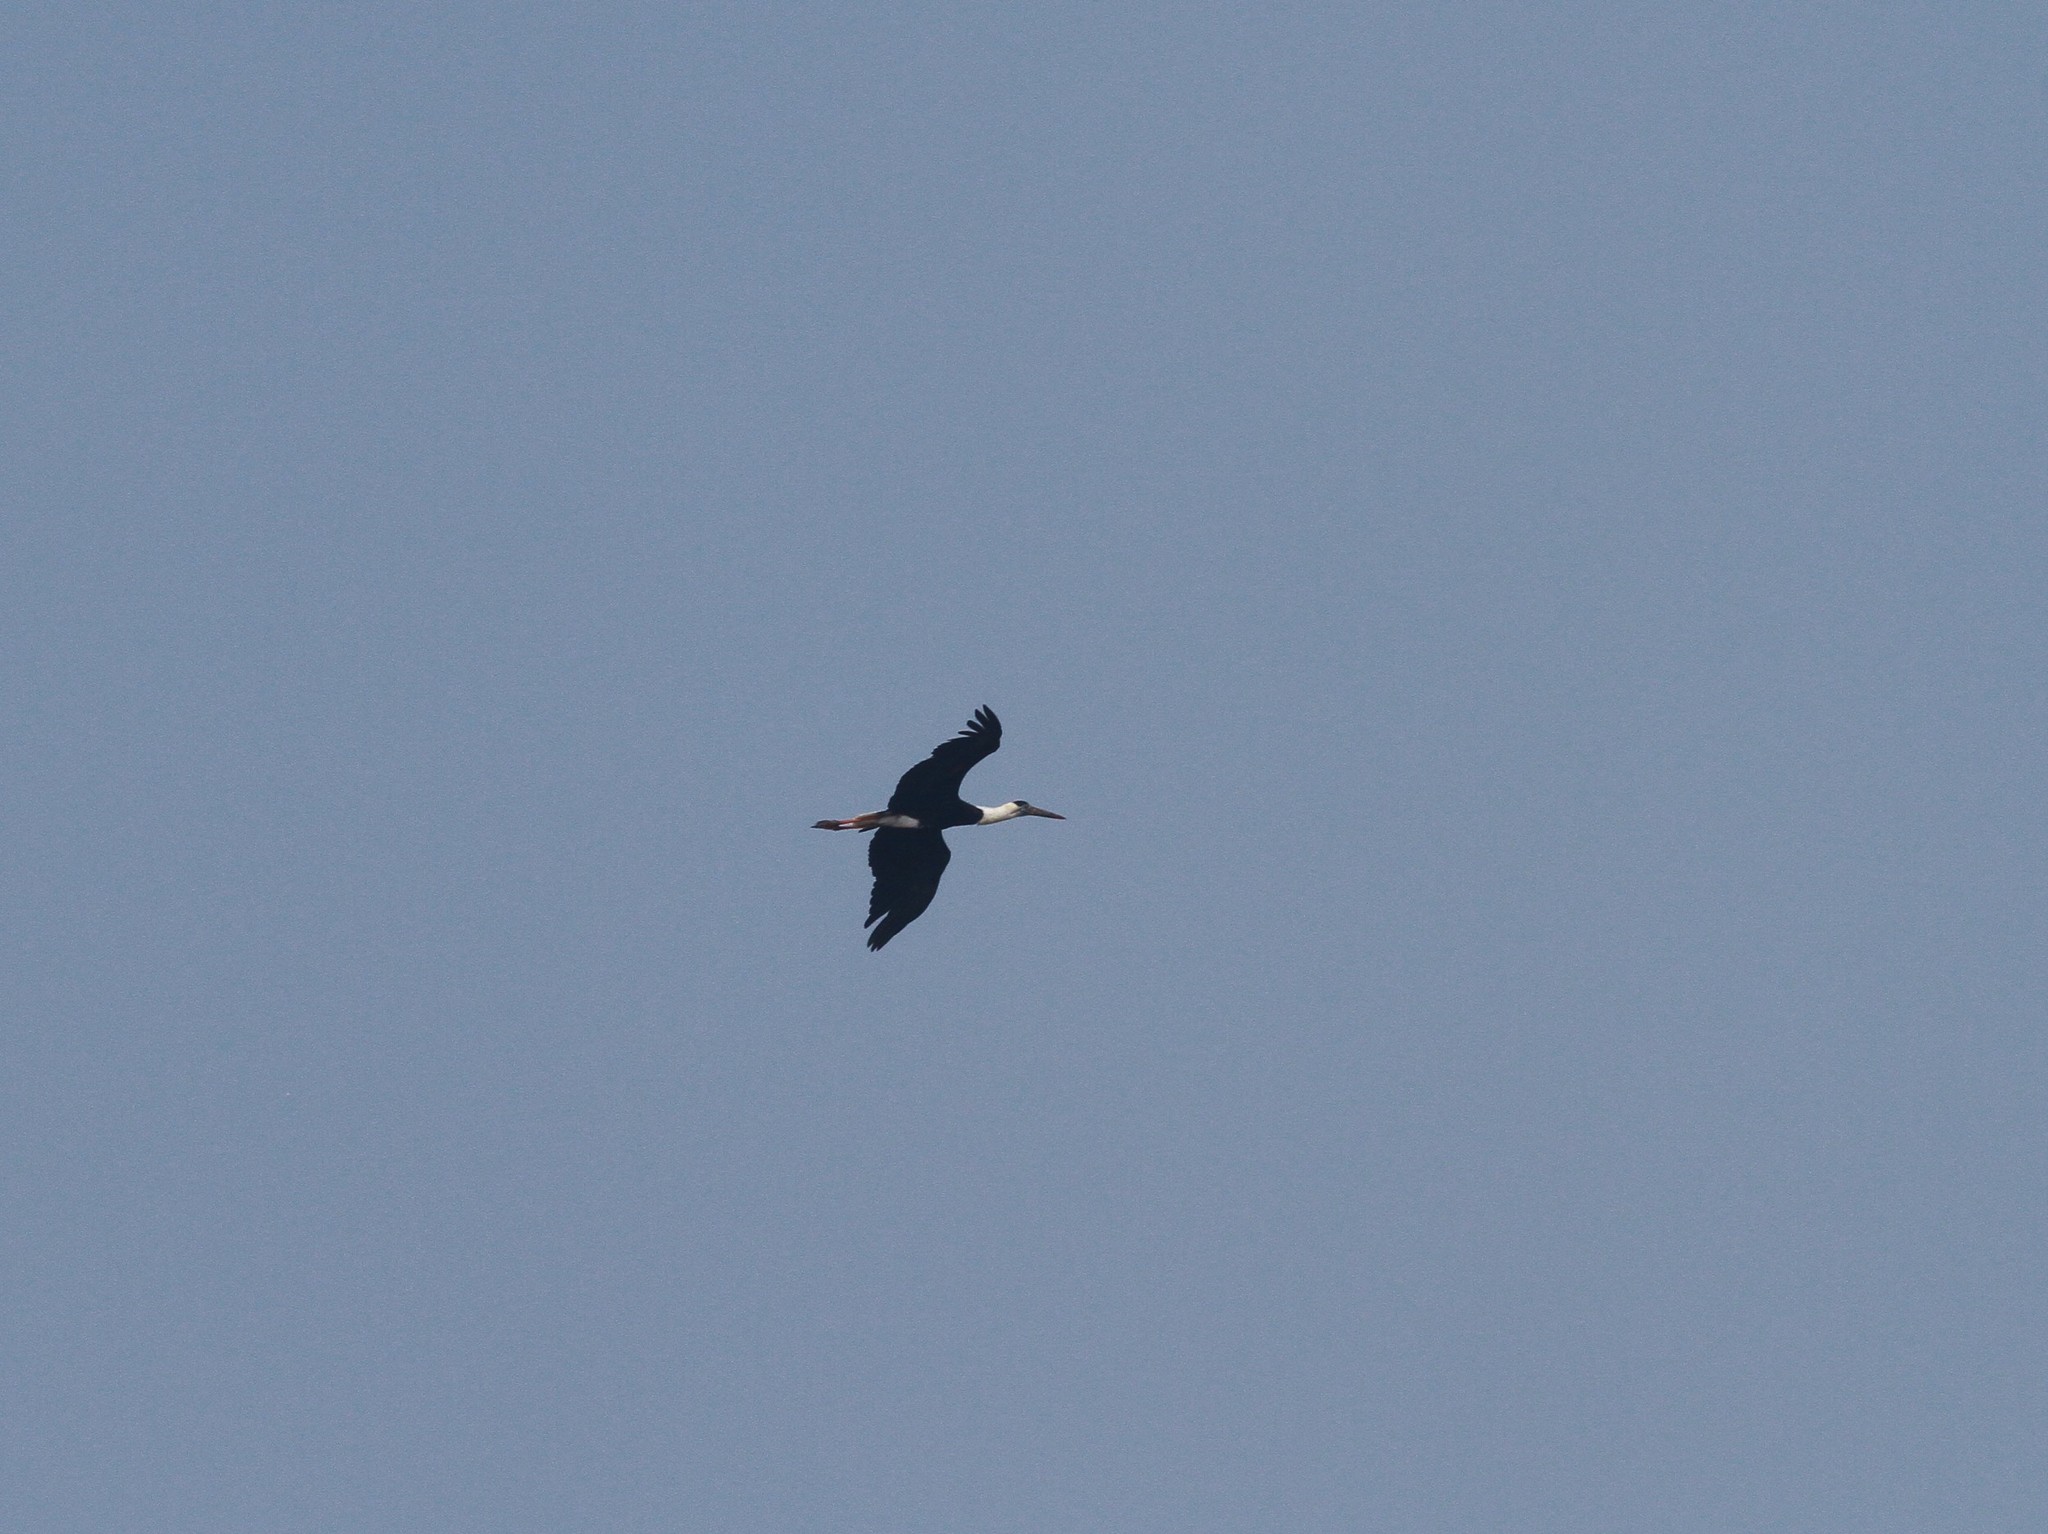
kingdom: Animalia
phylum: Chordata
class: Aves
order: Ciconiiformes
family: Ciconiidae
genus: Ciconia
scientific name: Ciconia episcopus
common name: Woolly-necked stork
